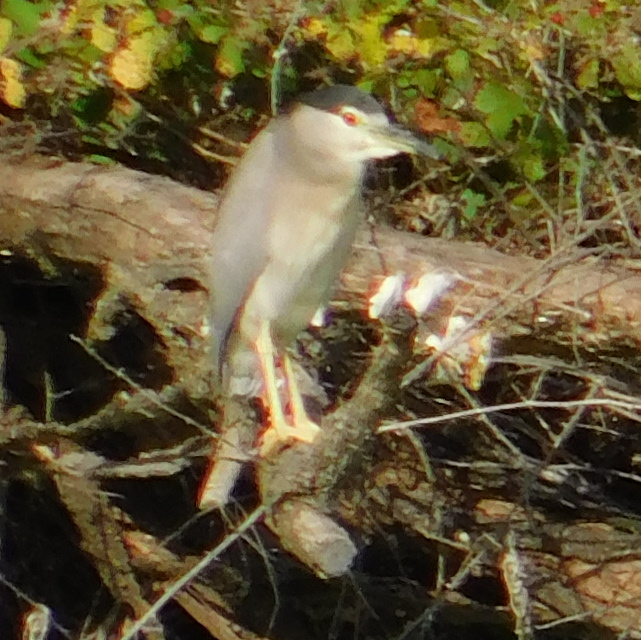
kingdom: Animalia
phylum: Chordata
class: Aves
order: Pelecaniformes
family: Ardeidae
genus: Nycticorax
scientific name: Nycticorax nycticorax
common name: Black-crowned night heron
